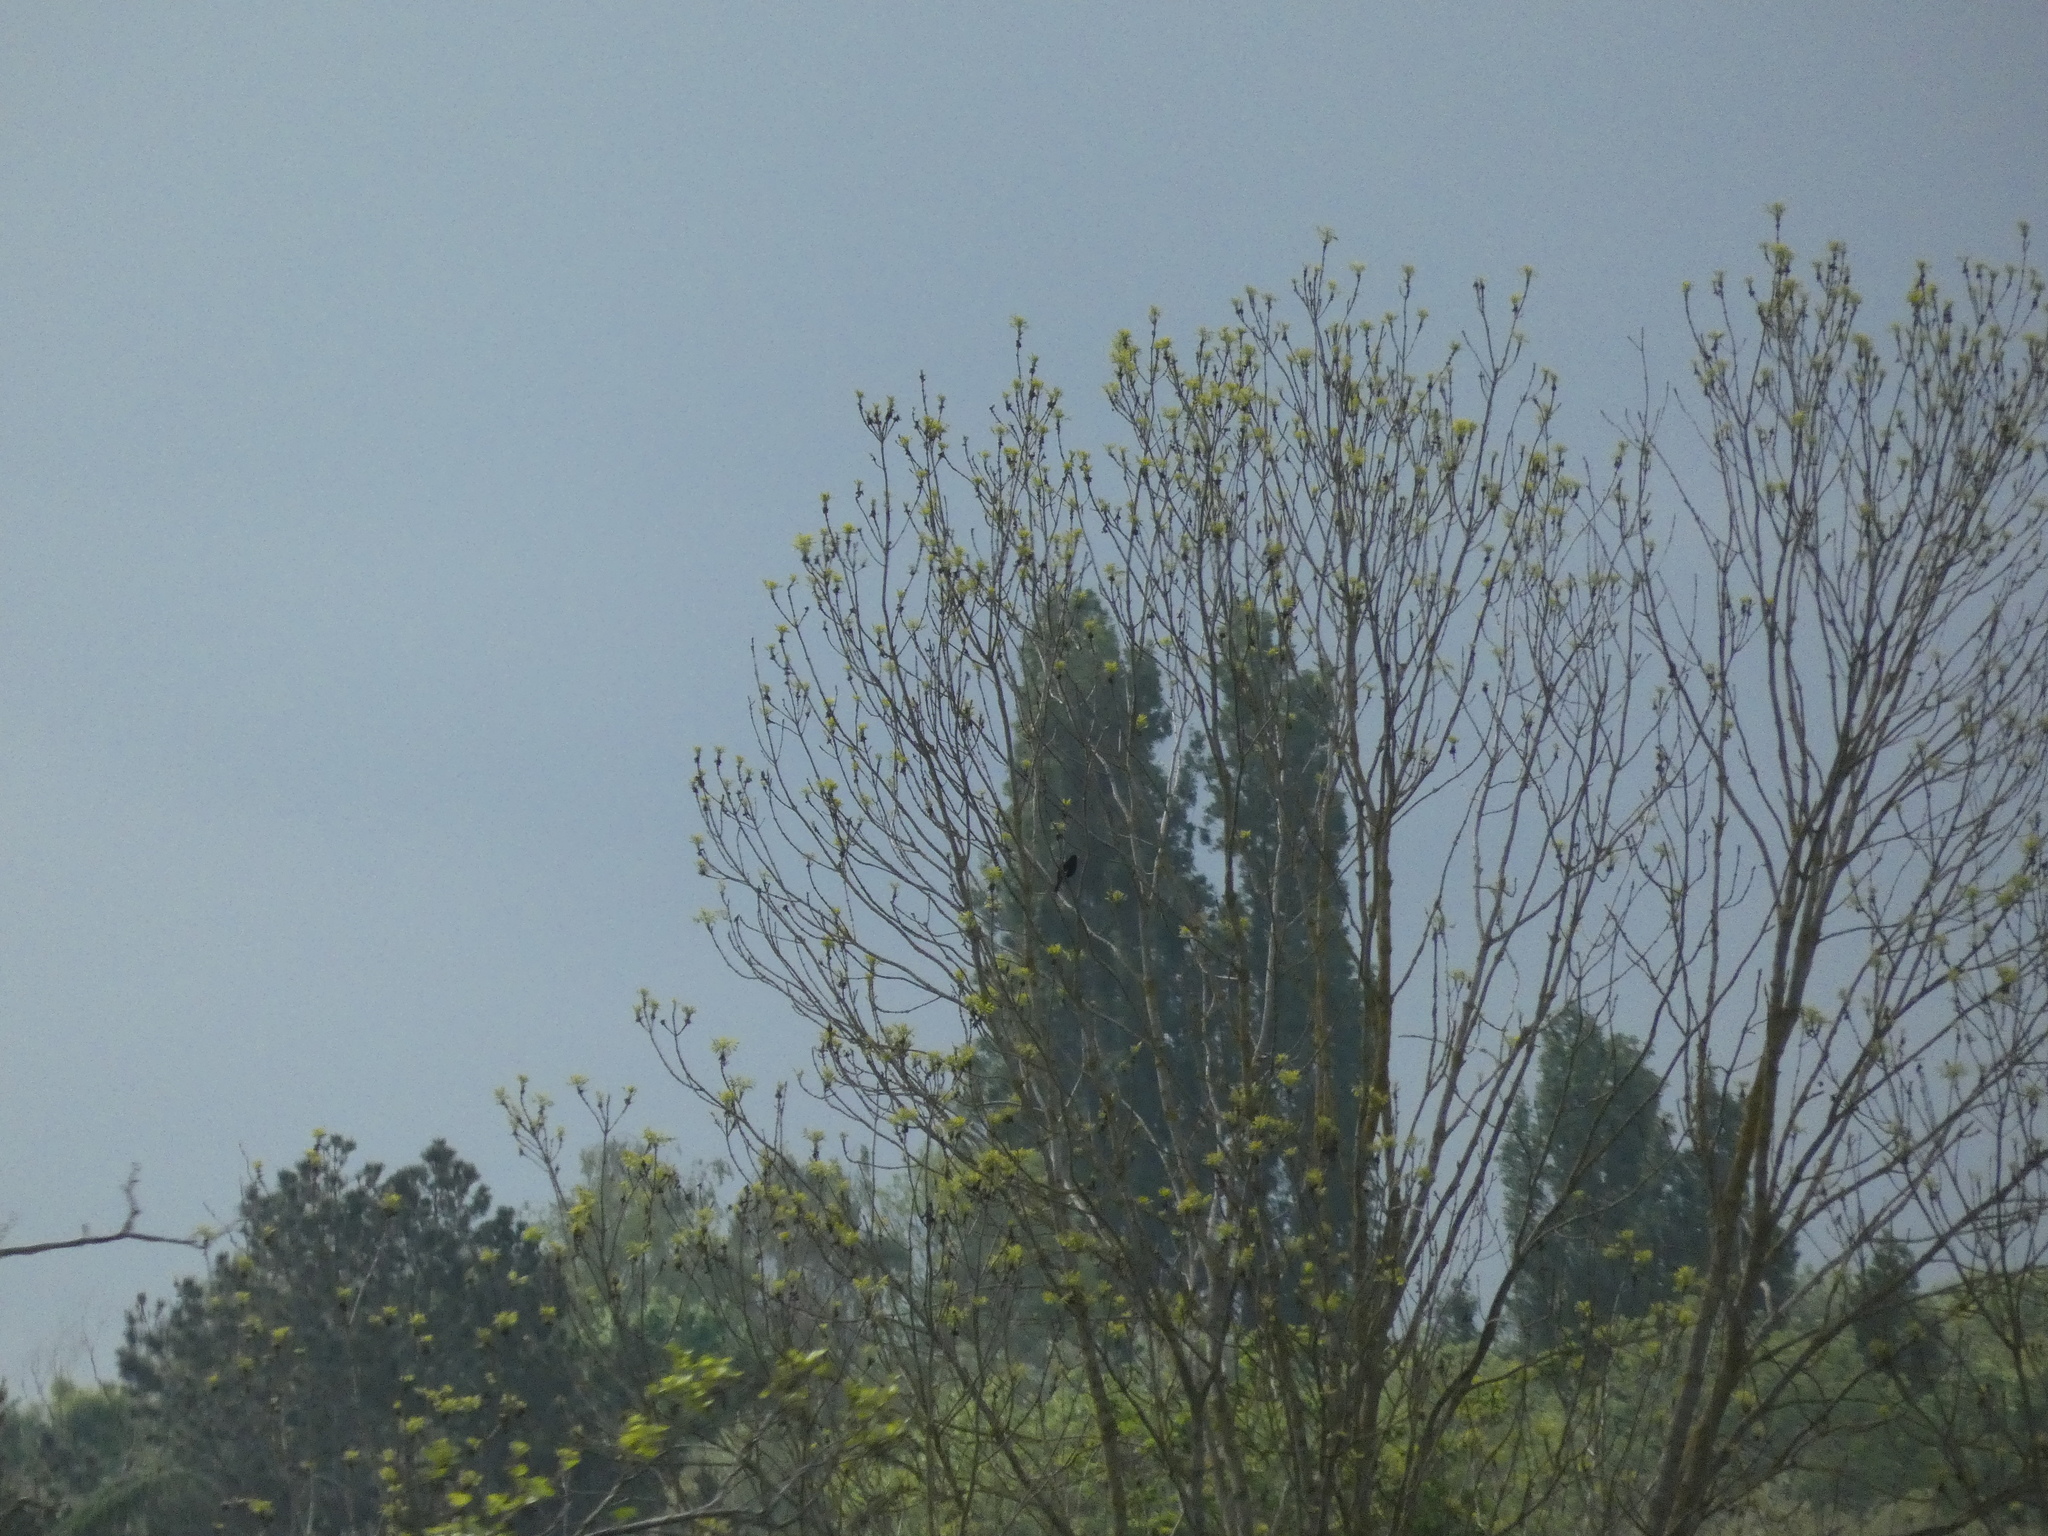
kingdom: Animalia
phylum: Chordata
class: Aves
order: Passeriformes
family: Turdidae
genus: Turdus
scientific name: Turdus merula
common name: Common blackbird
